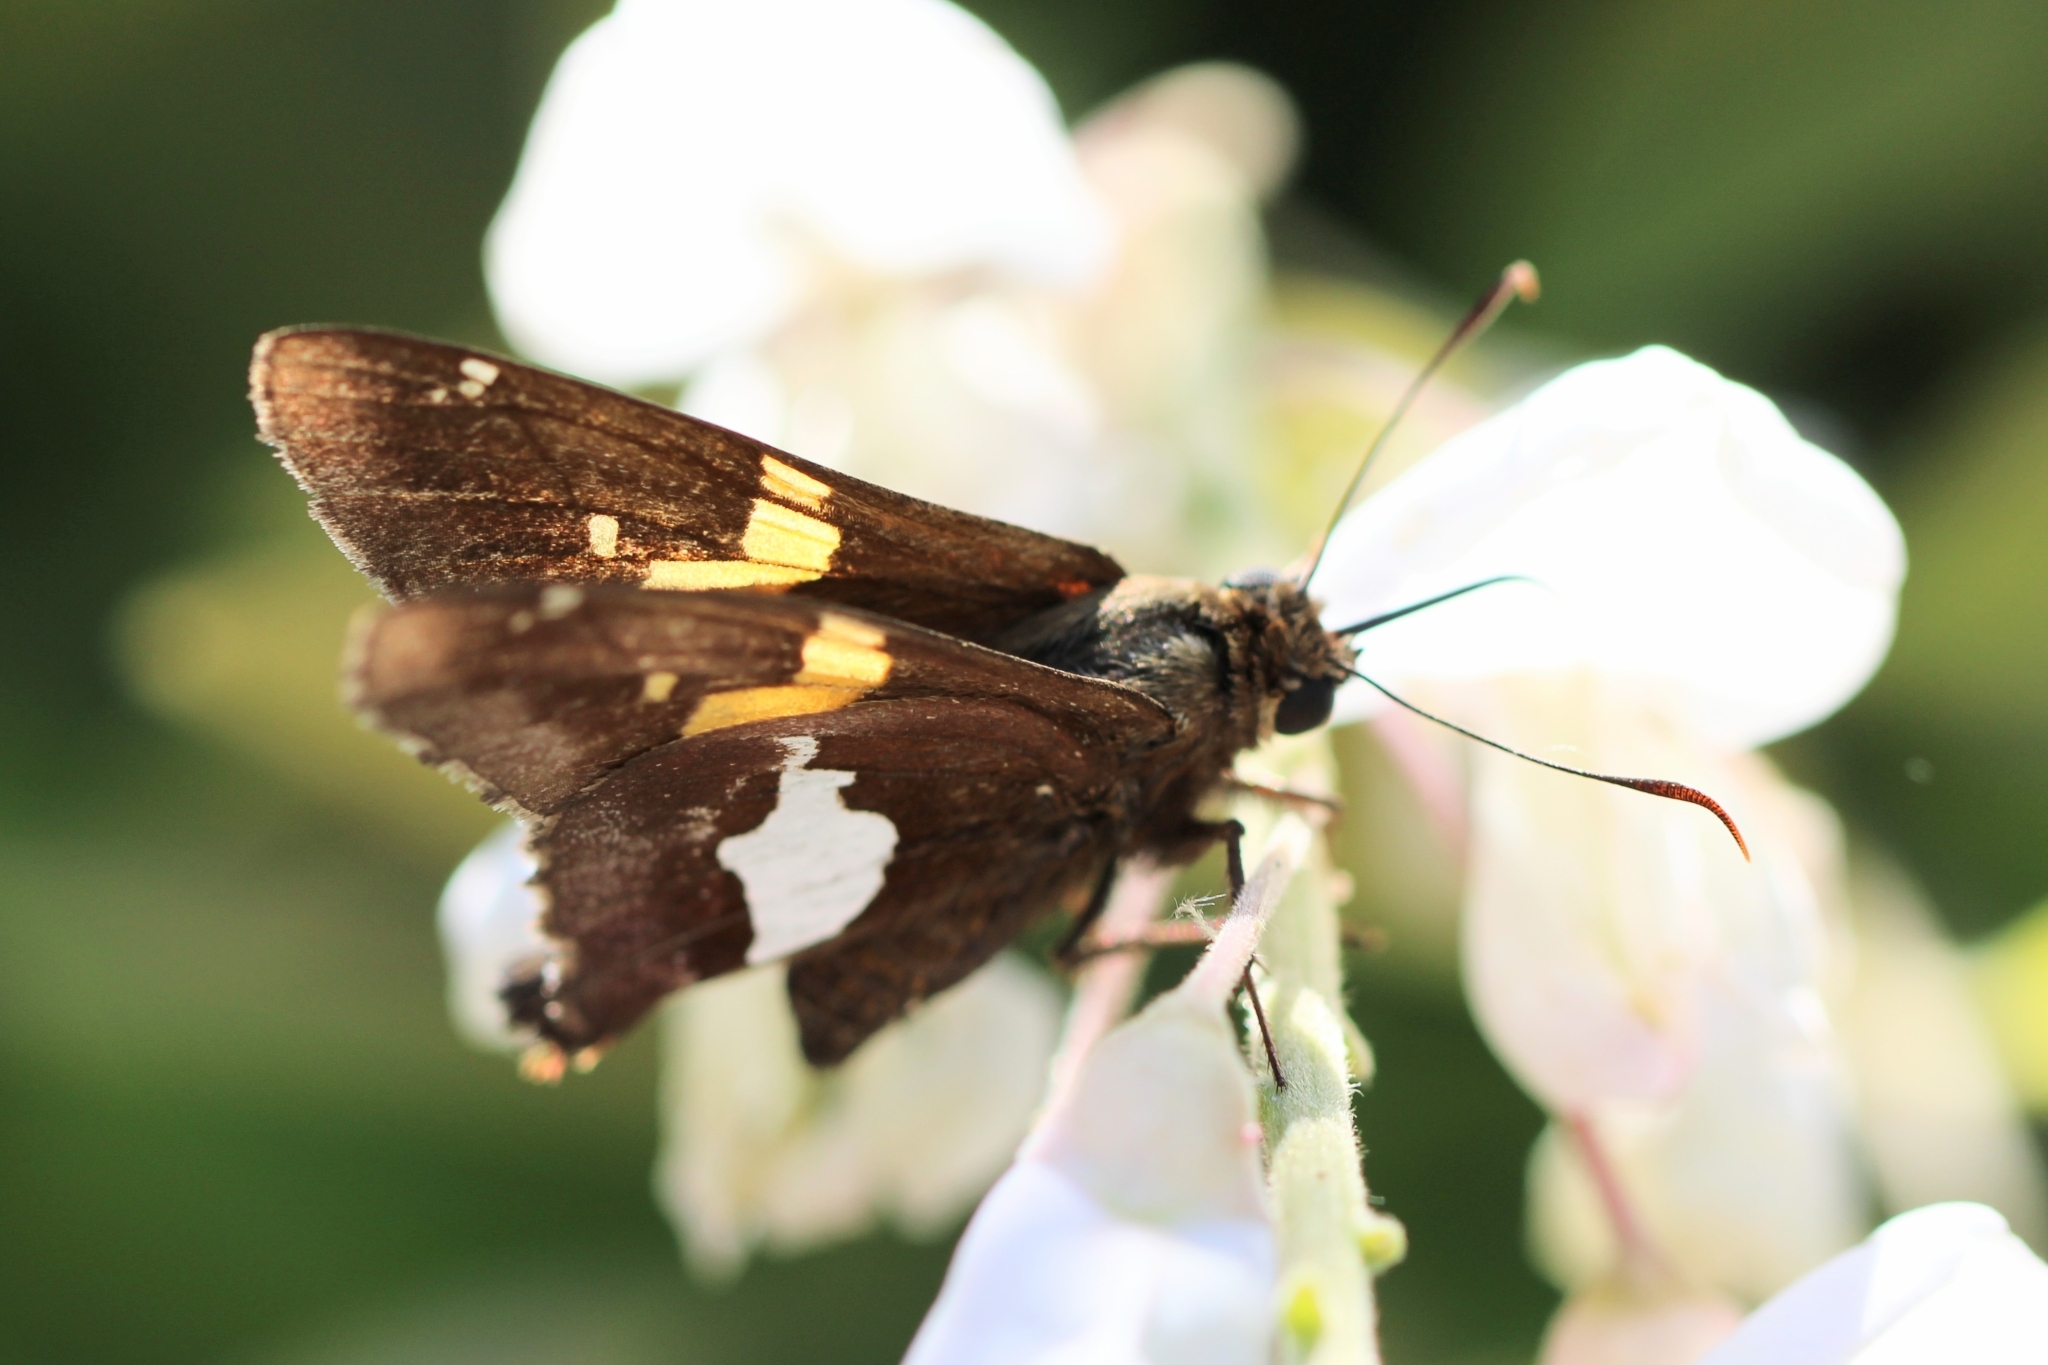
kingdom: Animalia
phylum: Arthropoda
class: Insecta
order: Lepidoptera
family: Hesperiidae
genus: Epargyreus
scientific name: Epargyreus clarus
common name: Silver-spotted skipper
